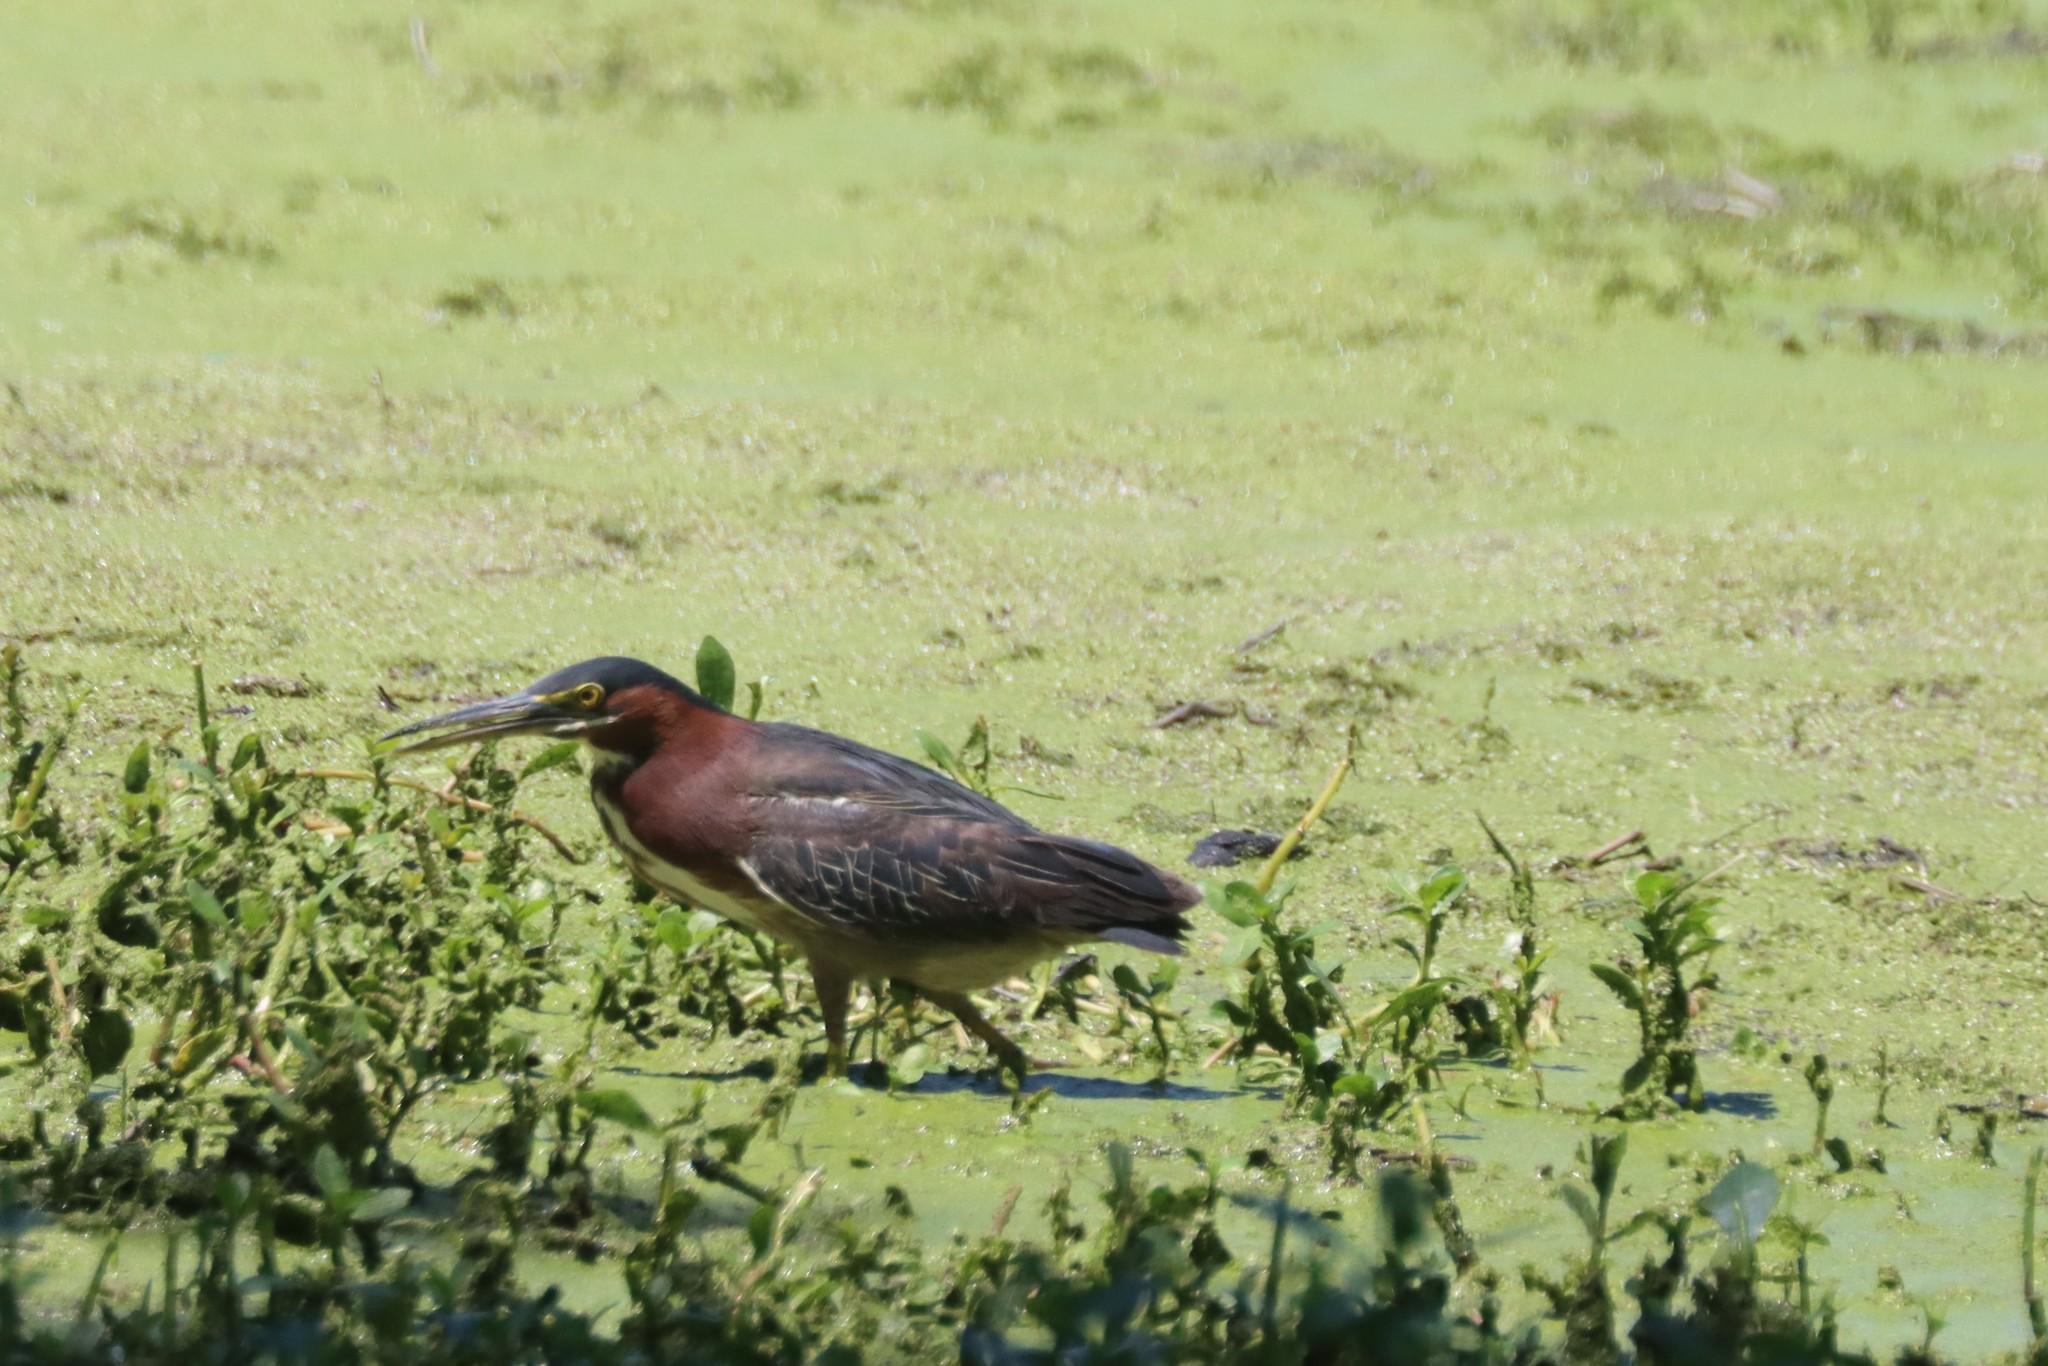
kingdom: Animalia
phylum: Chordata
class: Aves
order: Pelecaniformes
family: Ardeidae
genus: Butorides
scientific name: Butorides virescens
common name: Green heron
